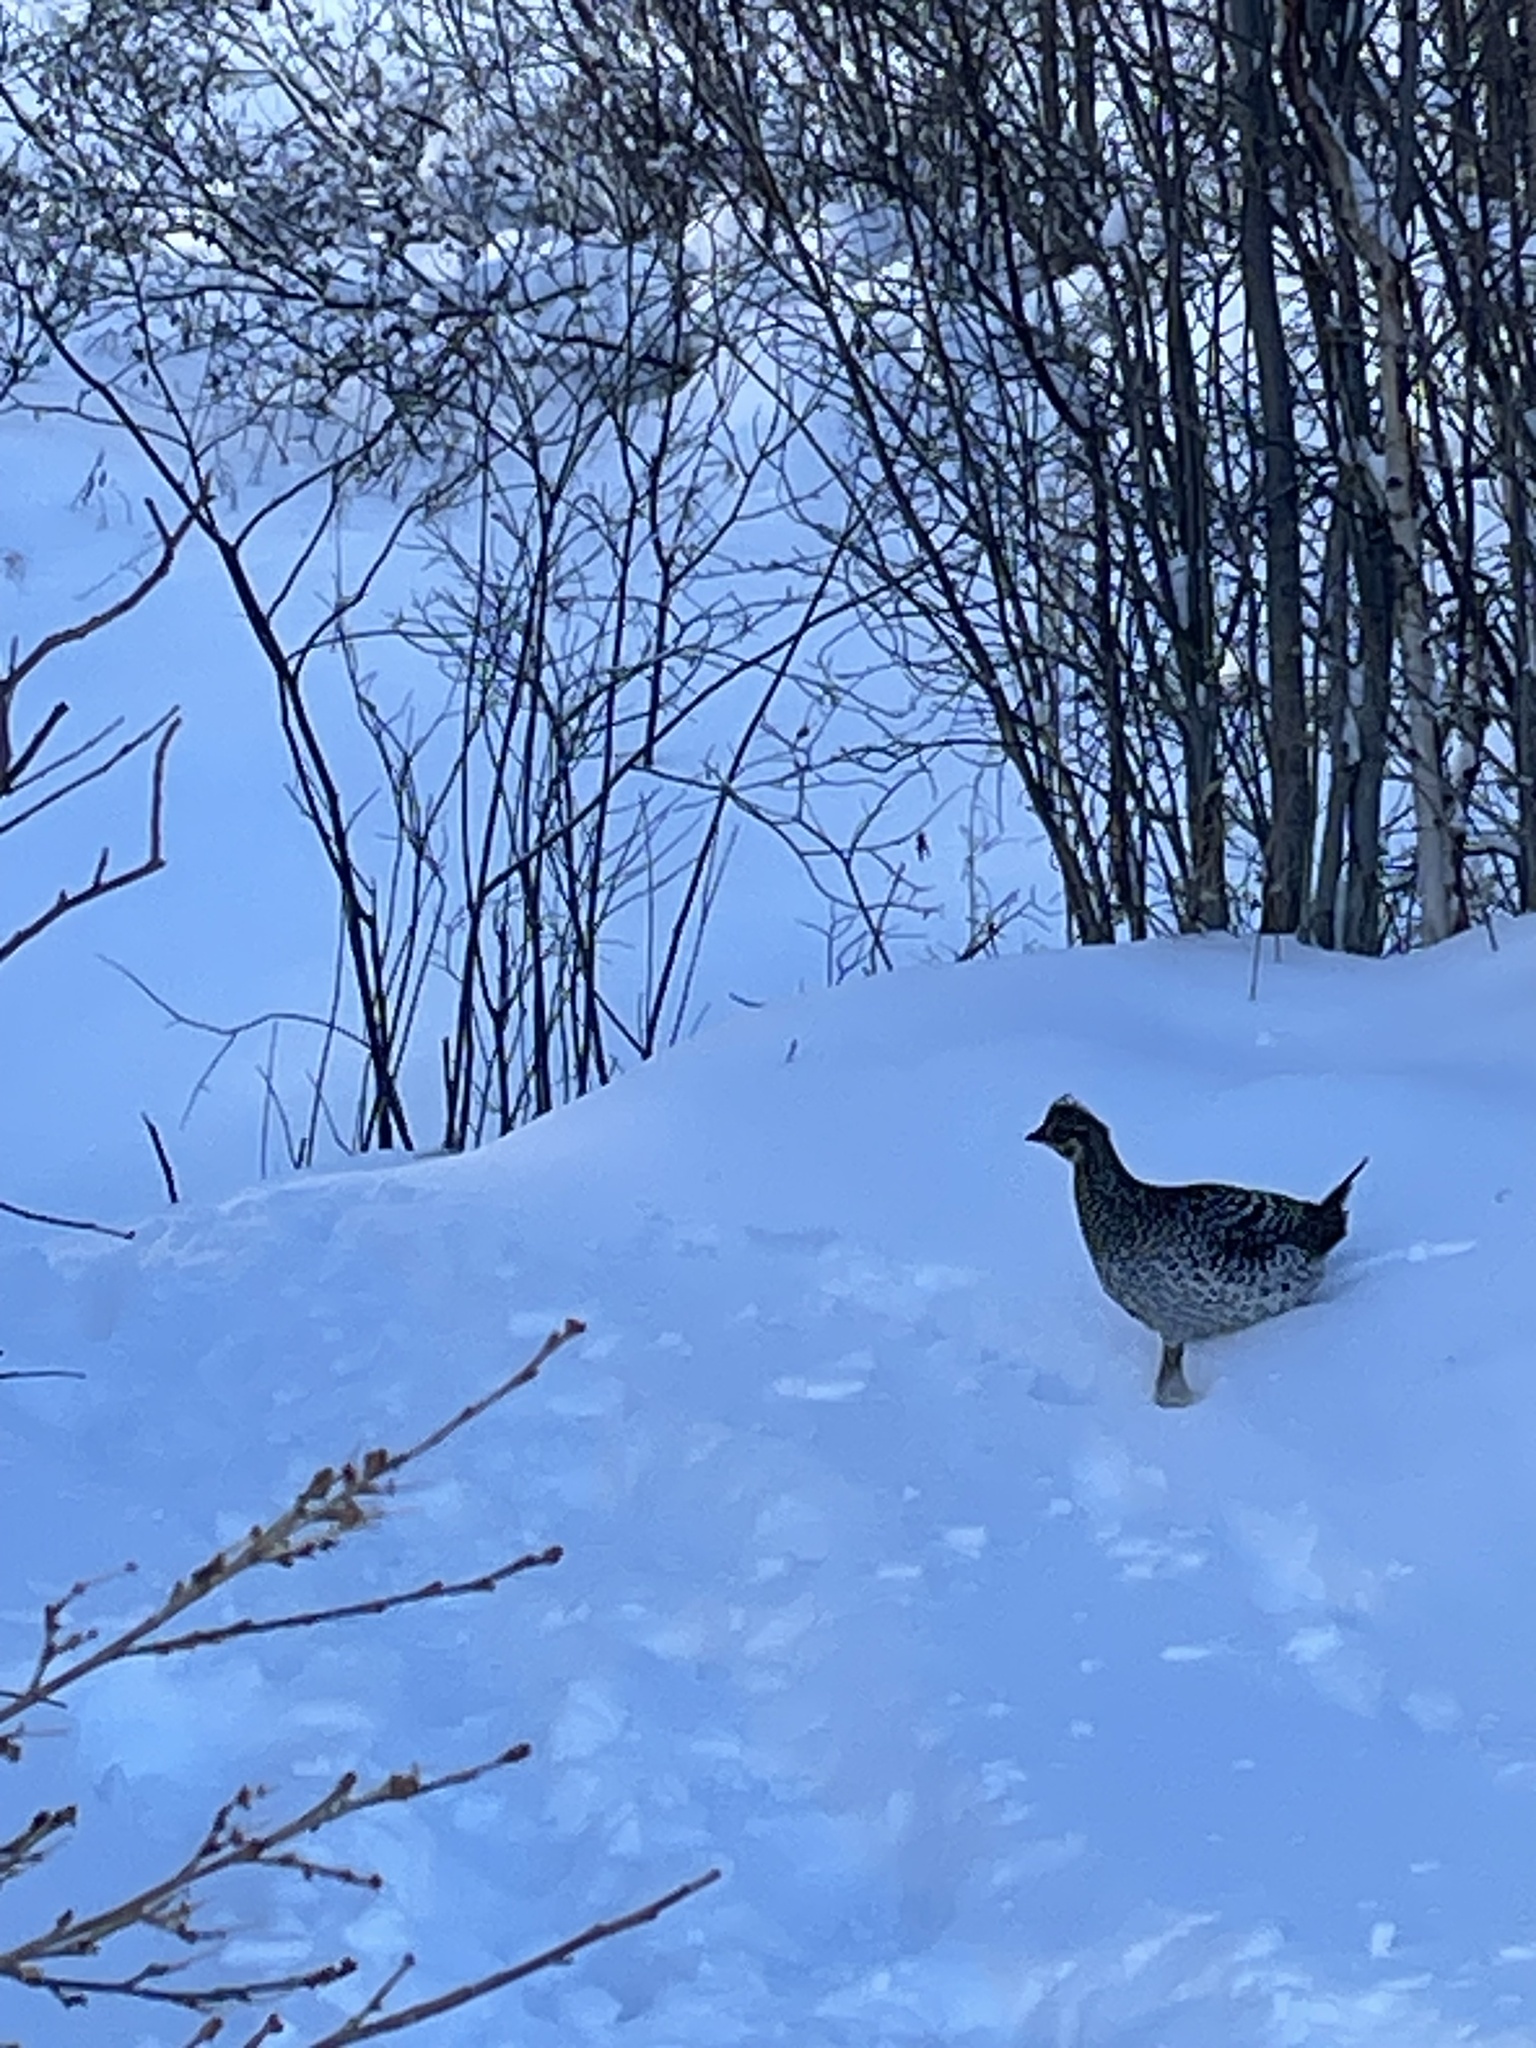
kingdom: Animalia
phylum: Chordata
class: Aves
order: Galliformes
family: Phasianidae
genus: Tympanuchus
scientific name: Tympanuchus phasianellus
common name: Sharp-tailed grouse
